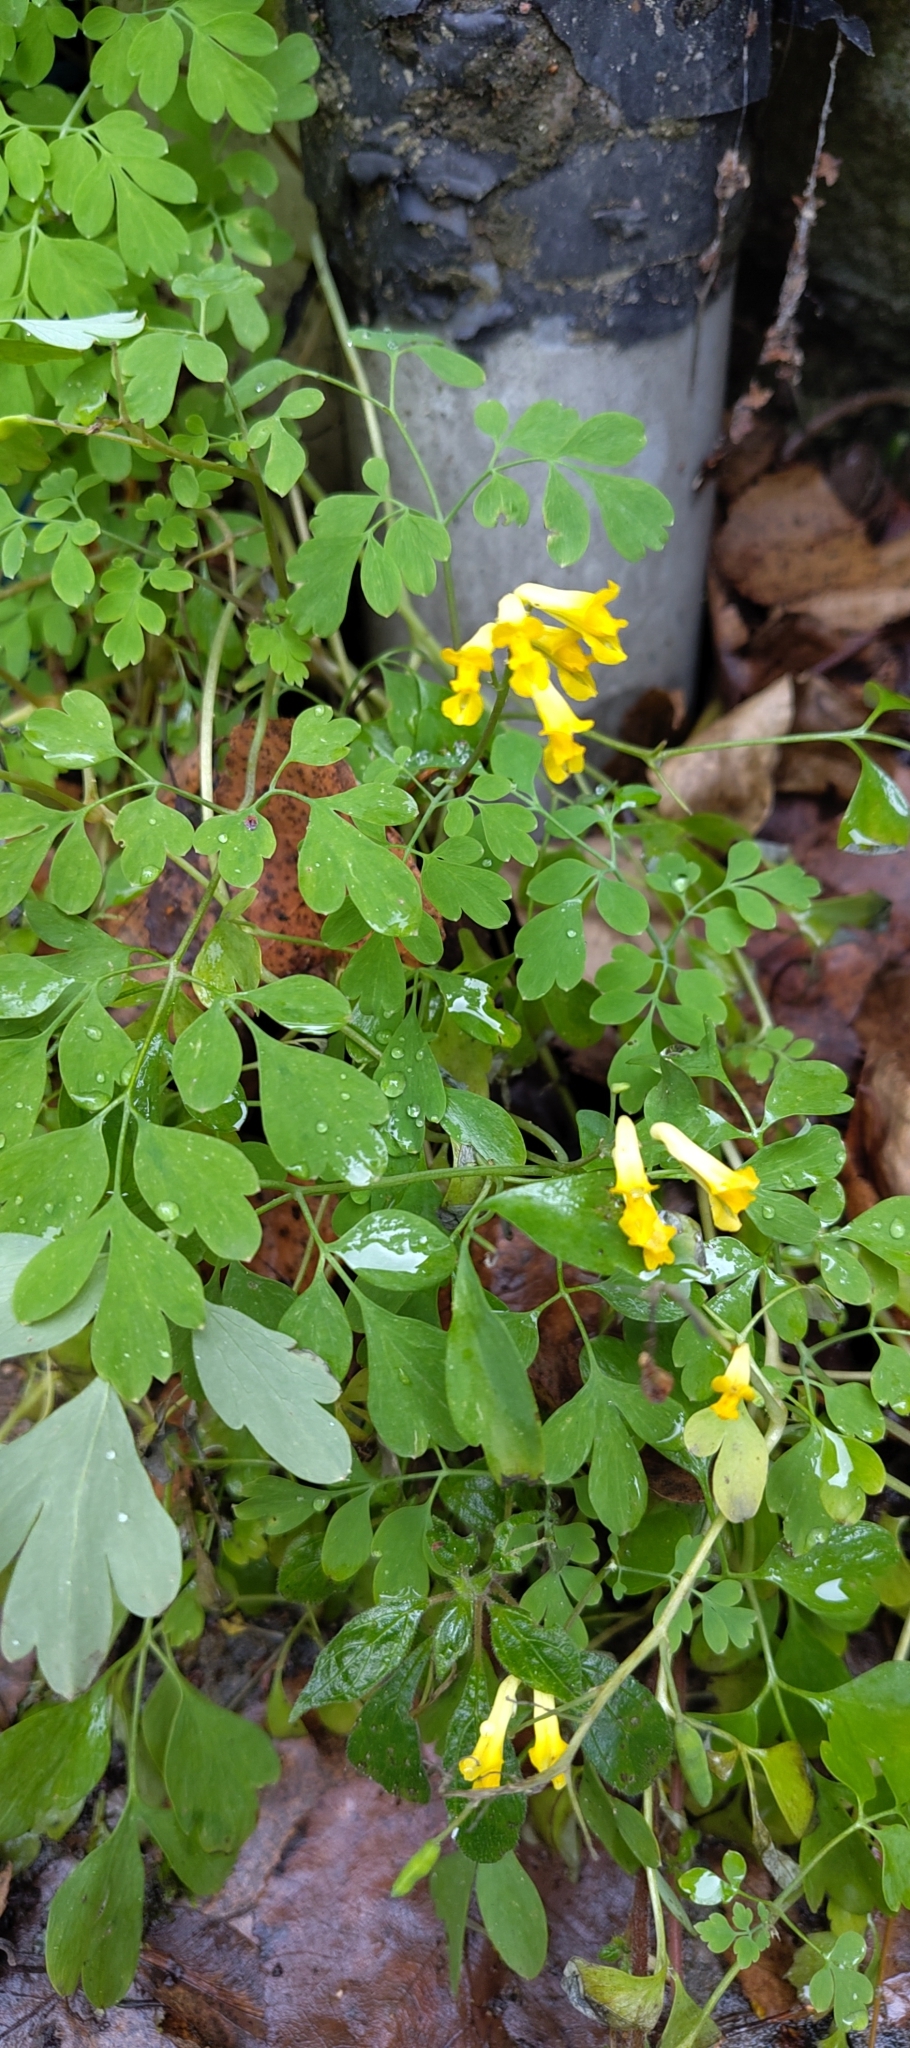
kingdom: Plantae
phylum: Tracheophyta
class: Magnoliopsida
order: Ranunculales
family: Papaveraceae
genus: Pseudofumaria
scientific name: Pseudofumaria lutea
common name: Yellow corydalis
